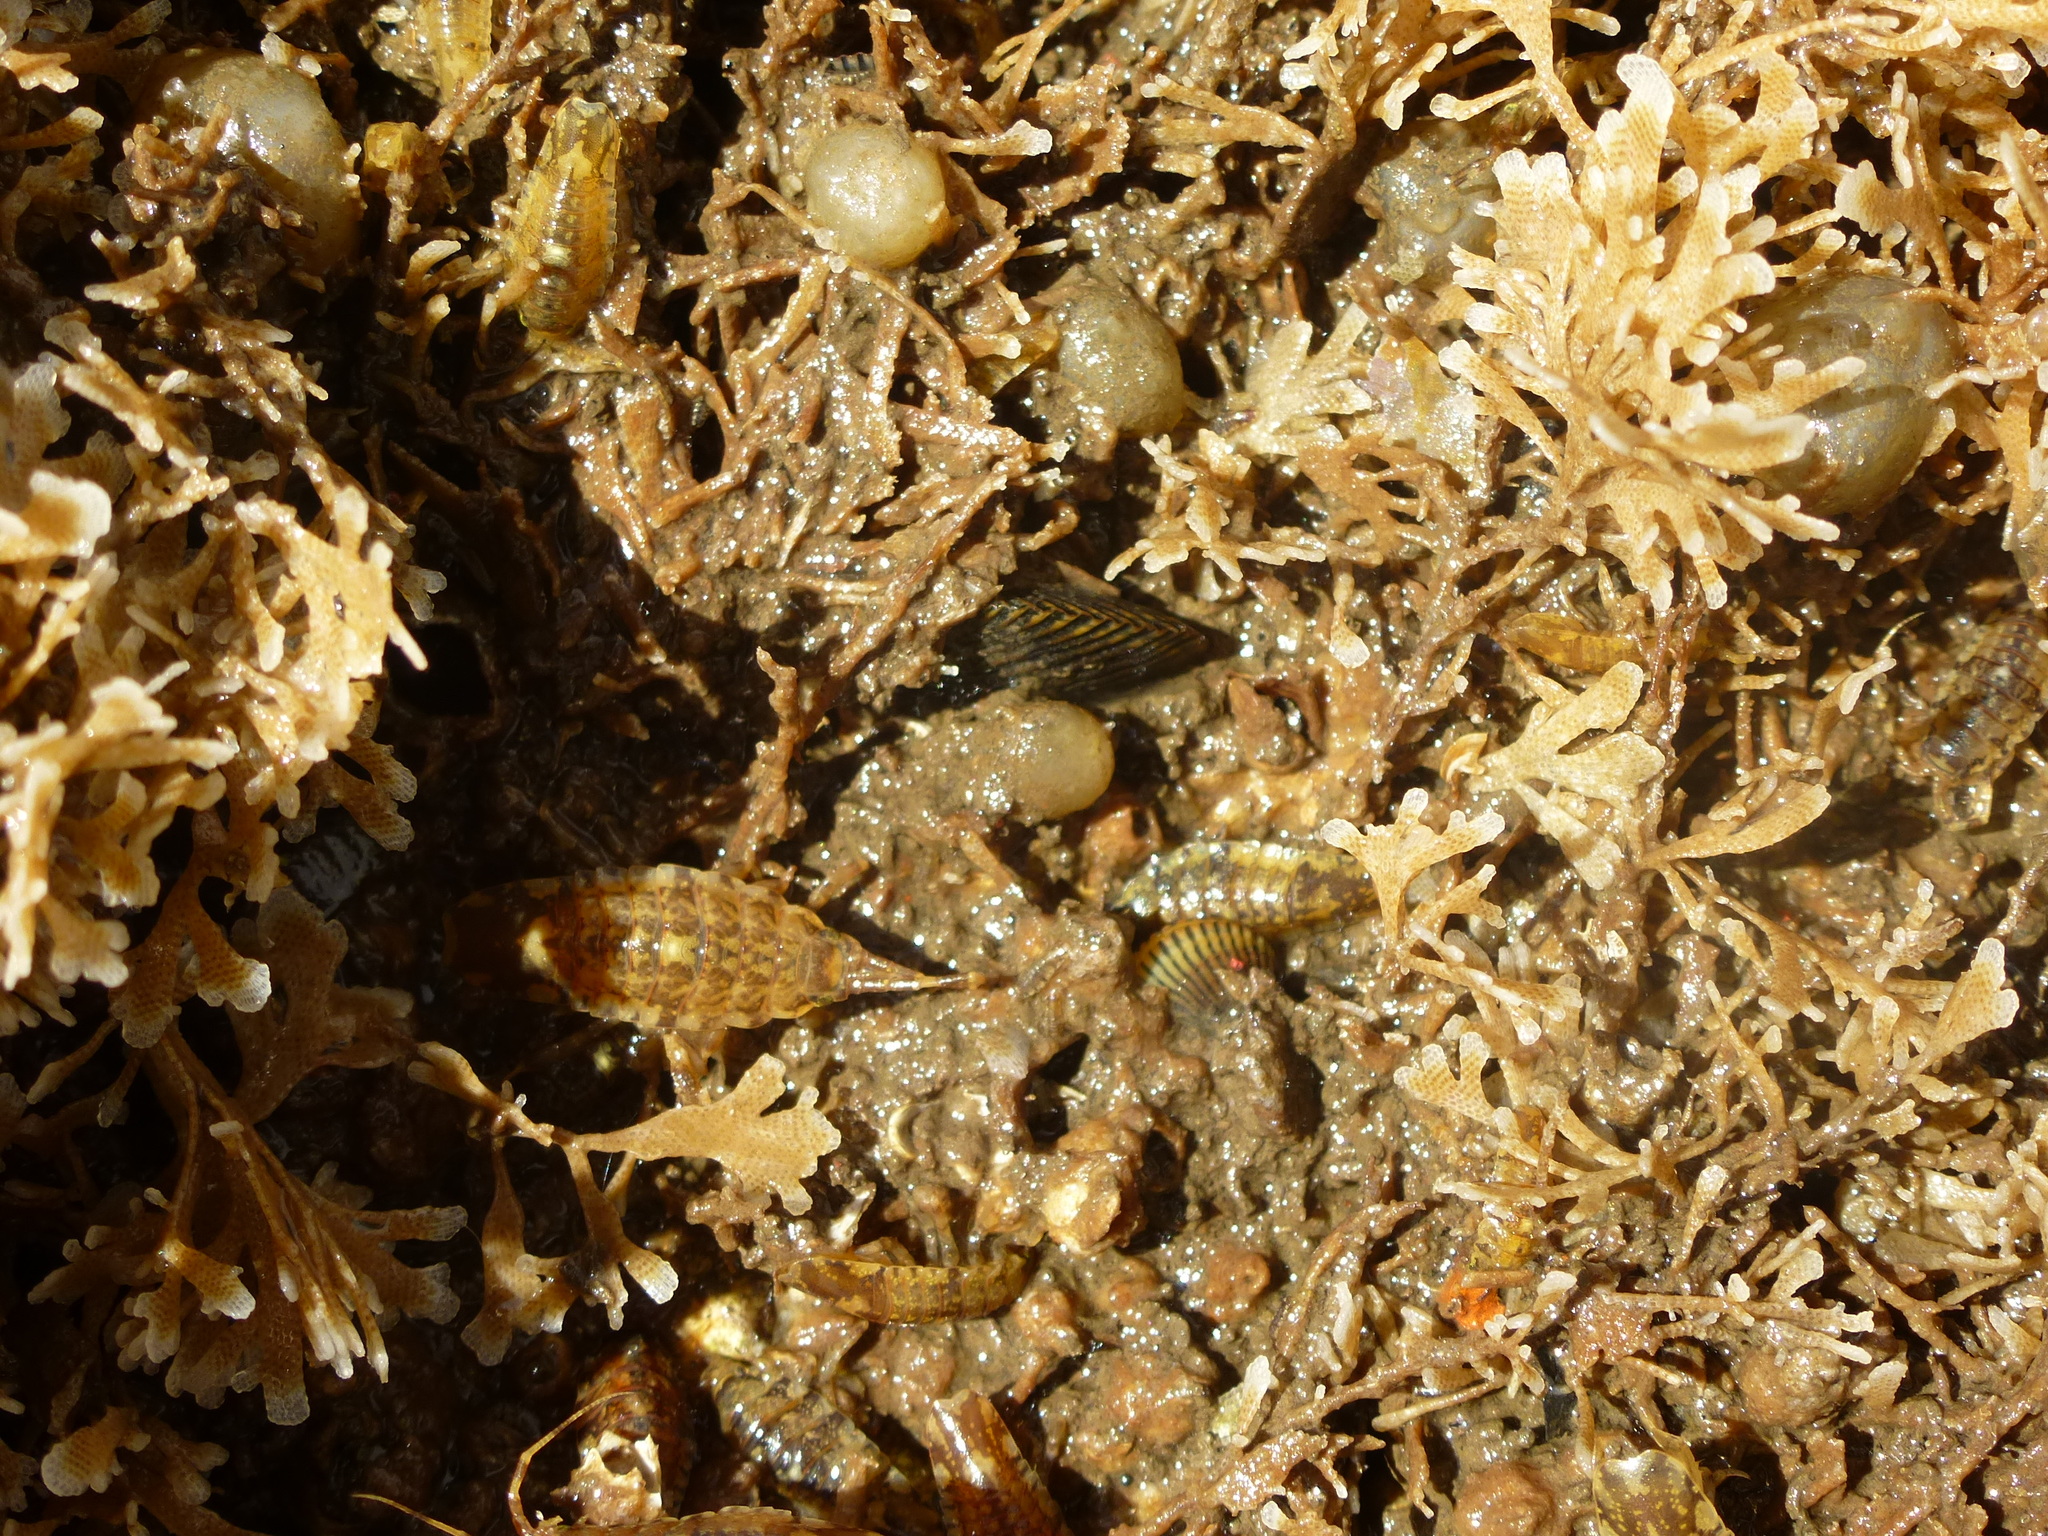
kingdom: Animalia
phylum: Mollusca
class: Bivalvia
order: Mytilida
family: Mytilidae
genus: Ischadium
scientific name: Ischadium recurvum
